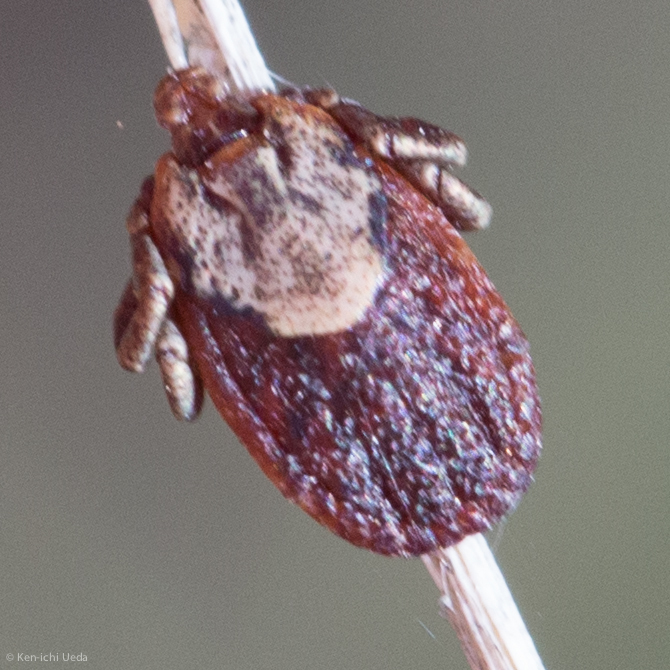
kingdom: Animalia
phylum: Arthropoda
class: Arachnida
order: Ixodida
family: Ixodidae
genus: Dermacentor
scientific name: Dermacentor occidentalis
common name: Net tick
